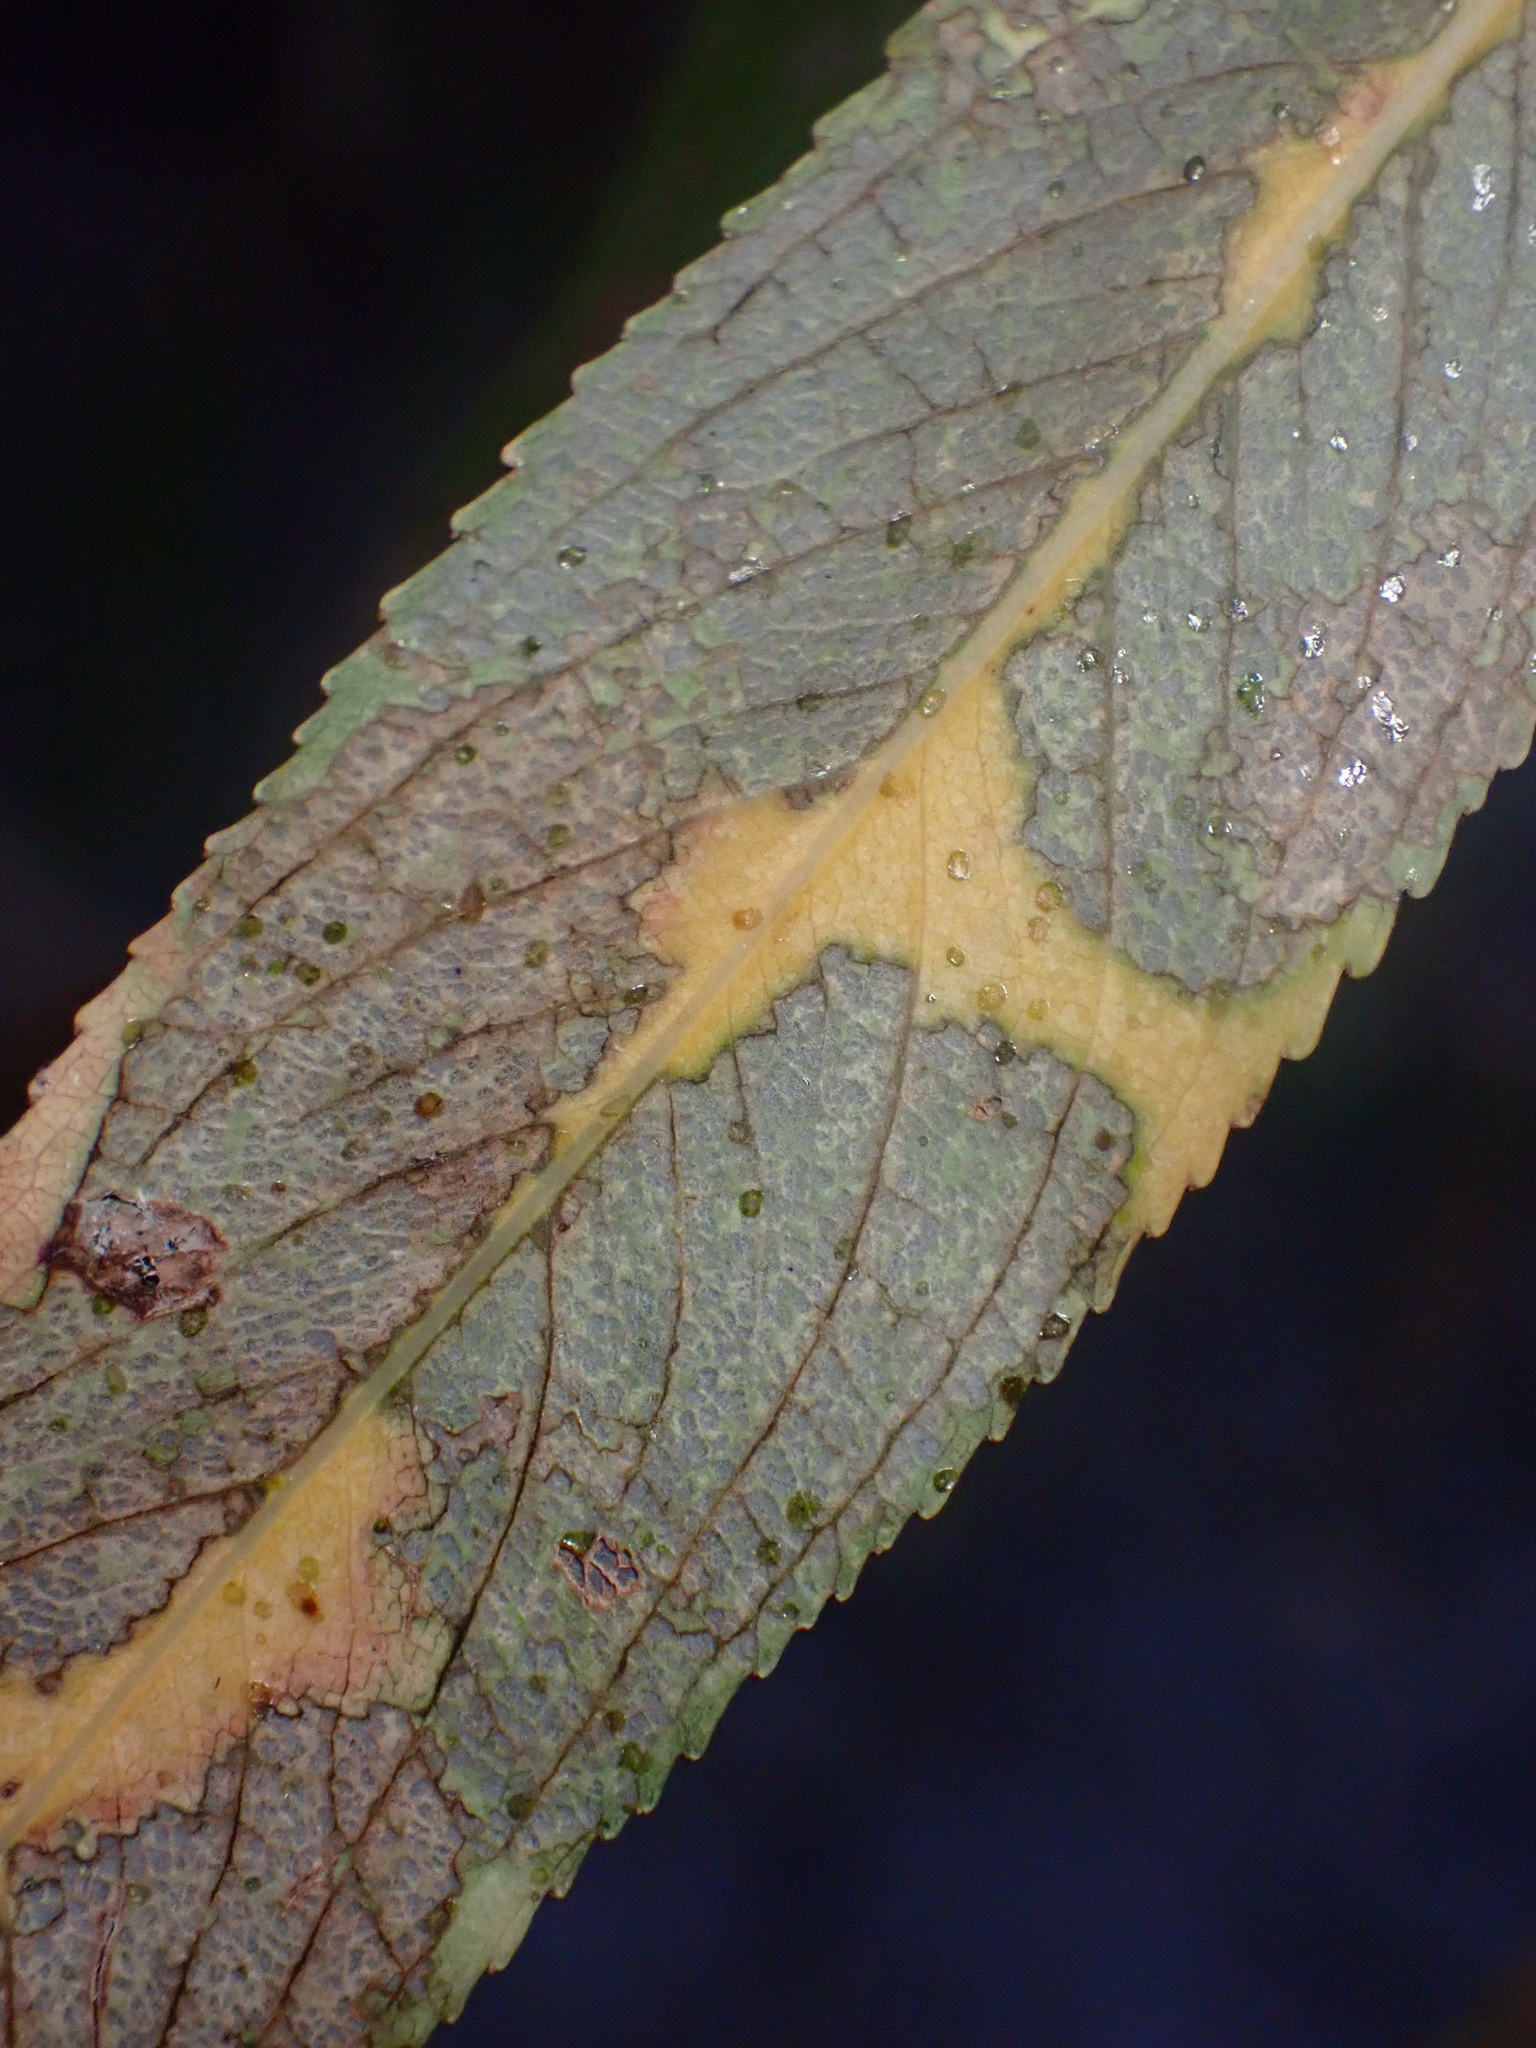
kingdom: Animalia
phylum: Arthropoda
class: Insecta
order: Coleoptera
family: Chrysomelidae
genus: Plagiodera
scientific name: Plagiodera arizonae
